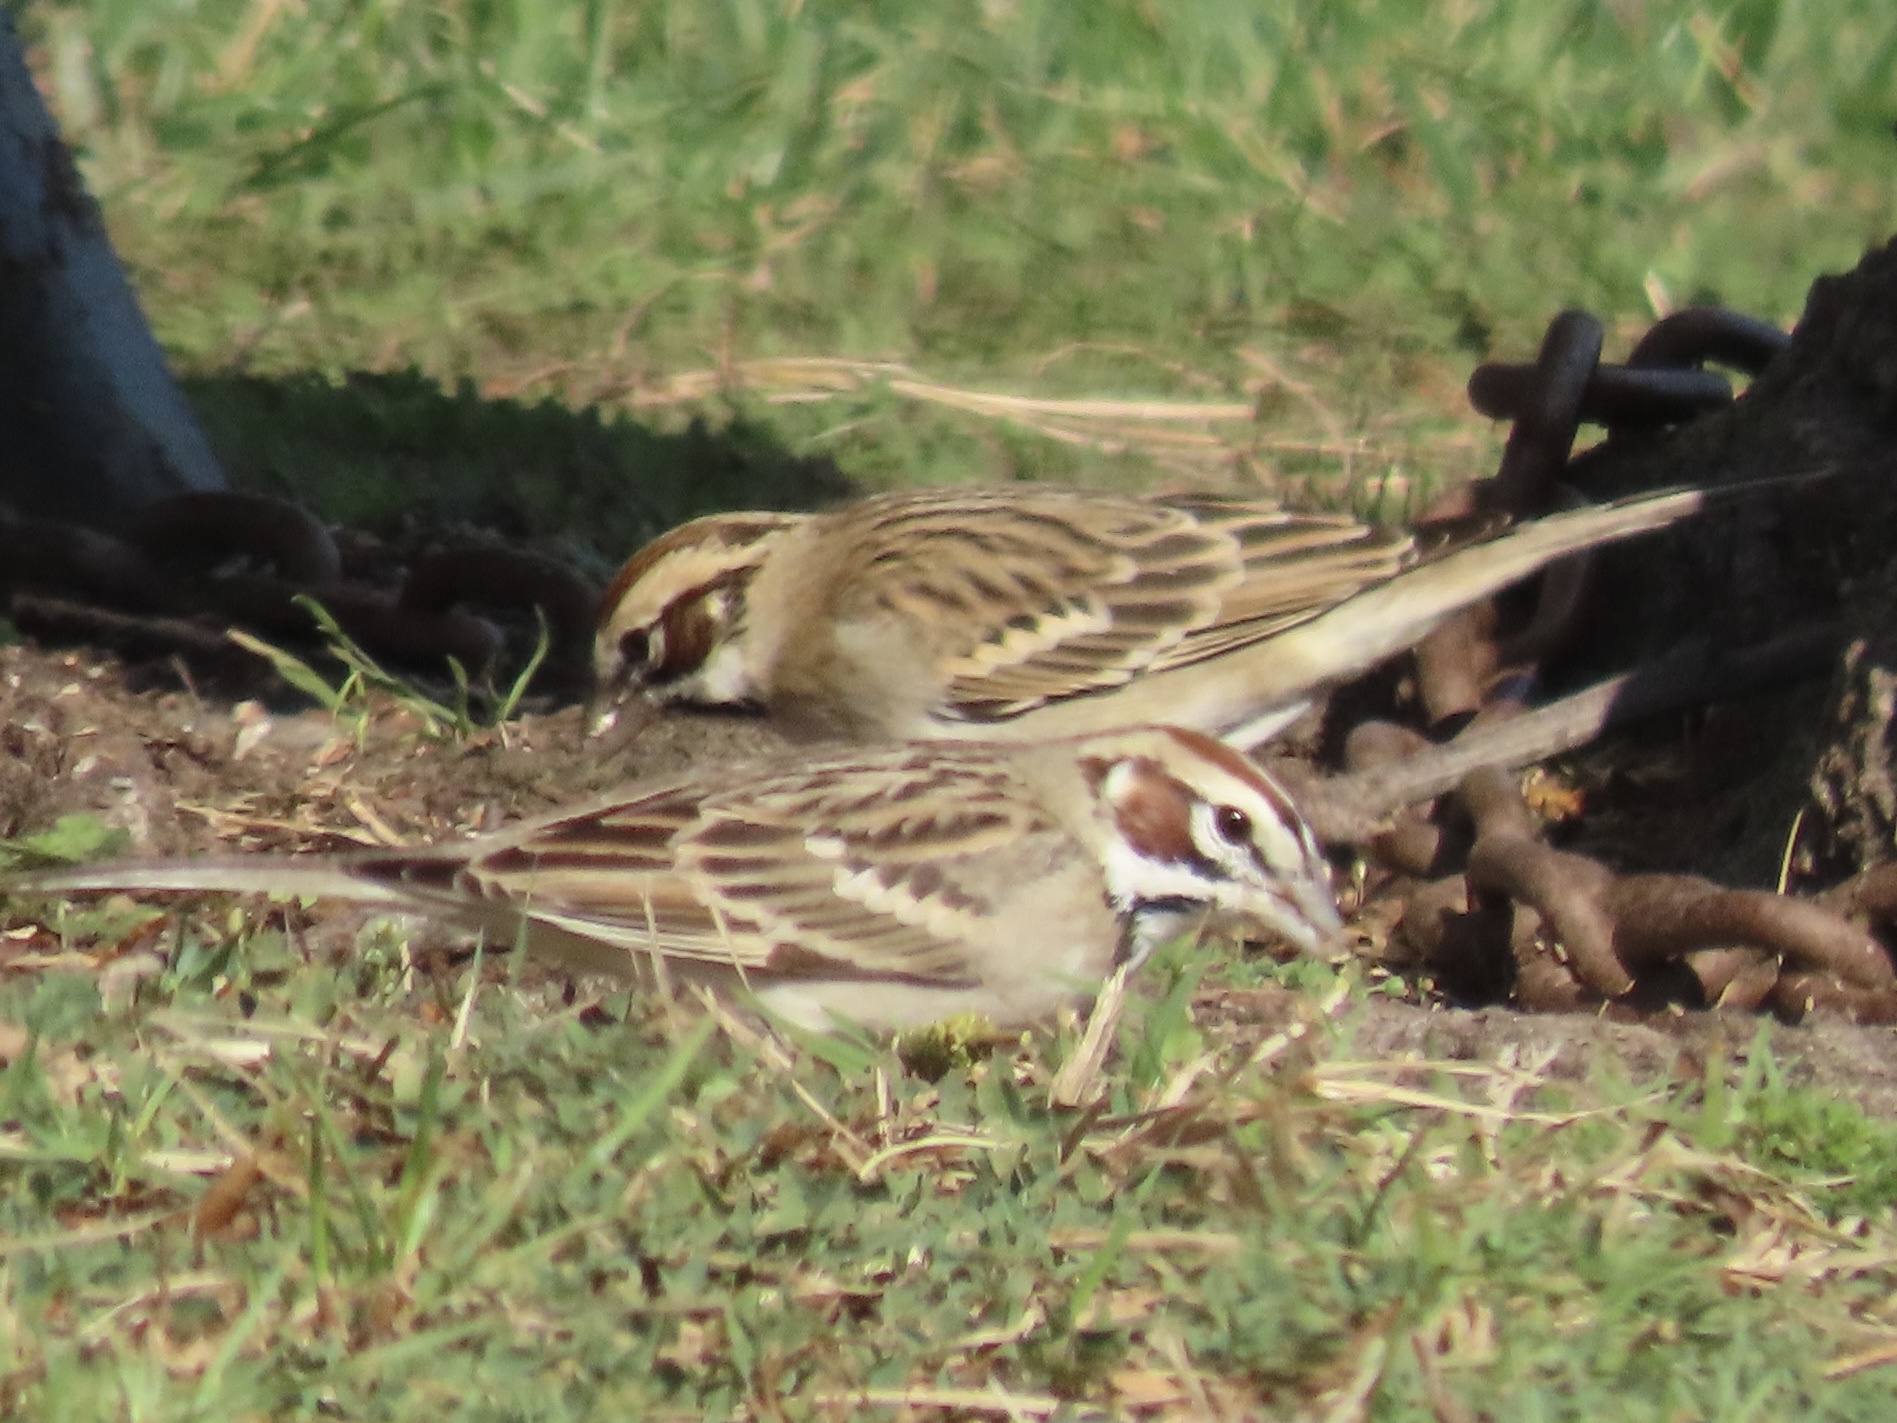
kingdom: Animalia
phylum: Chordata
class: Aves
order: Passeriformes
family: Passerellidae
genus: Chondestes
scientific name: Chondestes grammacus
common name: Lark sparrow
